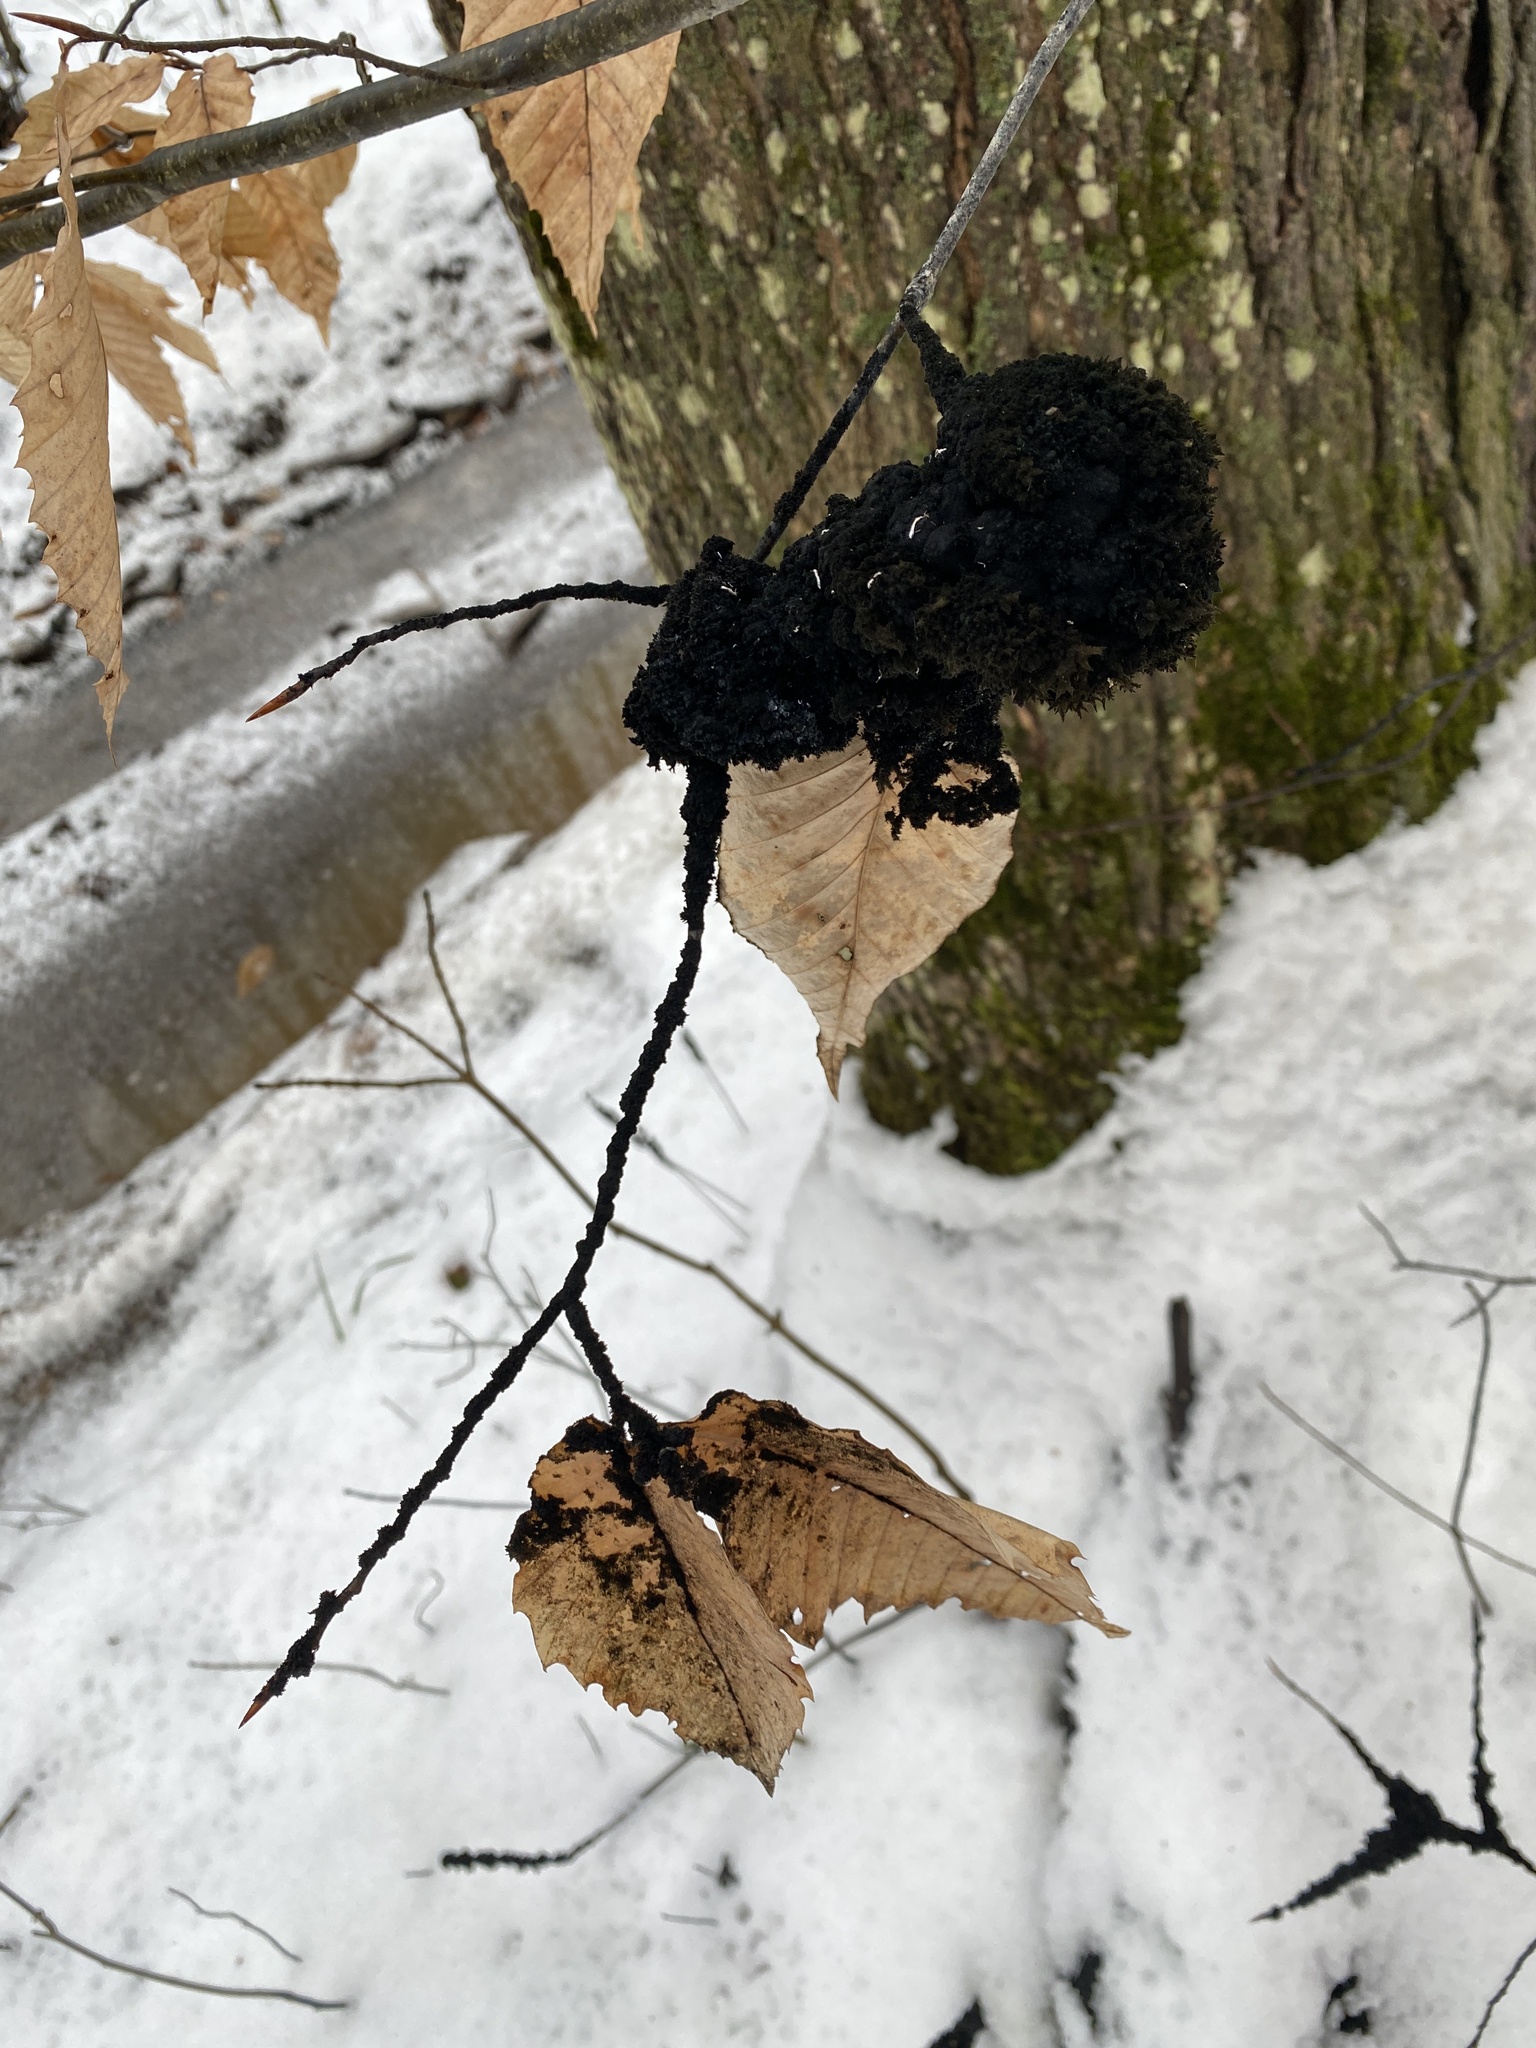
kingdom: Fungi
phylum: Ascomycota
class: Dothideomycetes
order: Capnodiales
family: Capnodiaceae
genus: Scorias
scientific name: Scorias spongiosa
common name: Black sooty mold
